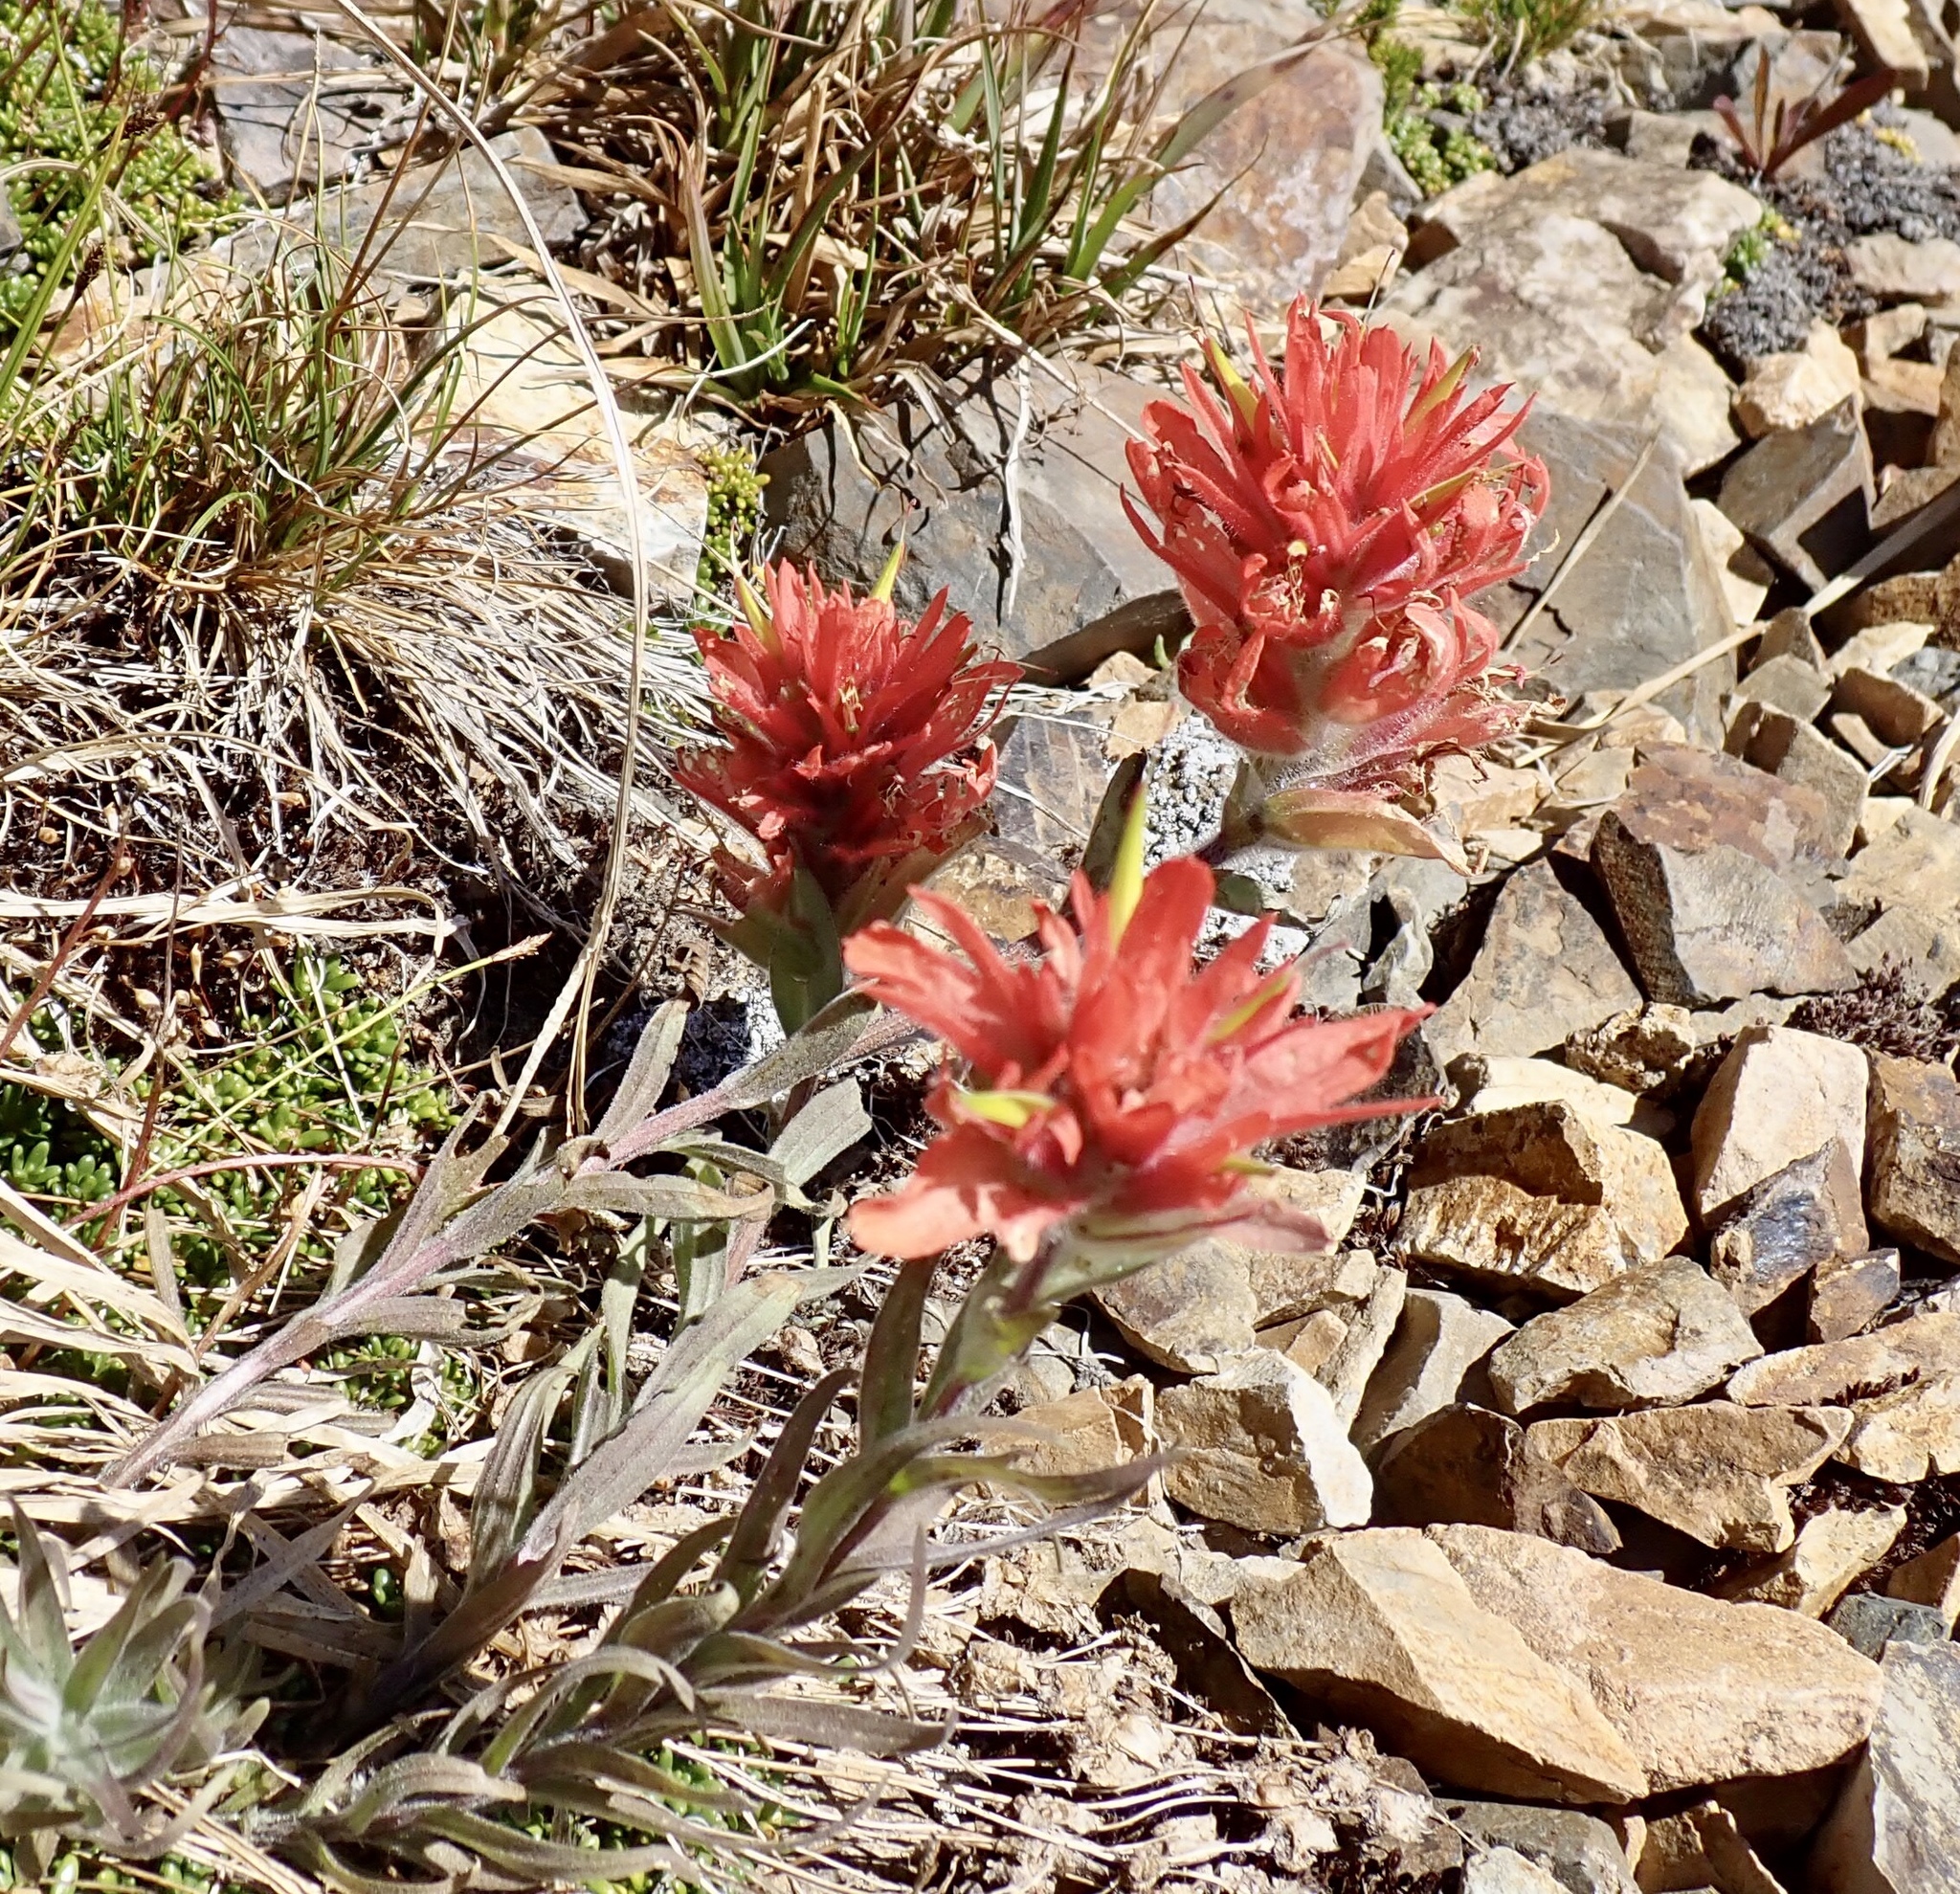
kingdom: Plantae
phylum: Tracheophyta
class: Magnoliopsida
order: Lamiales
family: Orobanchaceae
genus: Castilleja
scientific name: Castilleja elmeri
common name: Elmer's paintbrush
